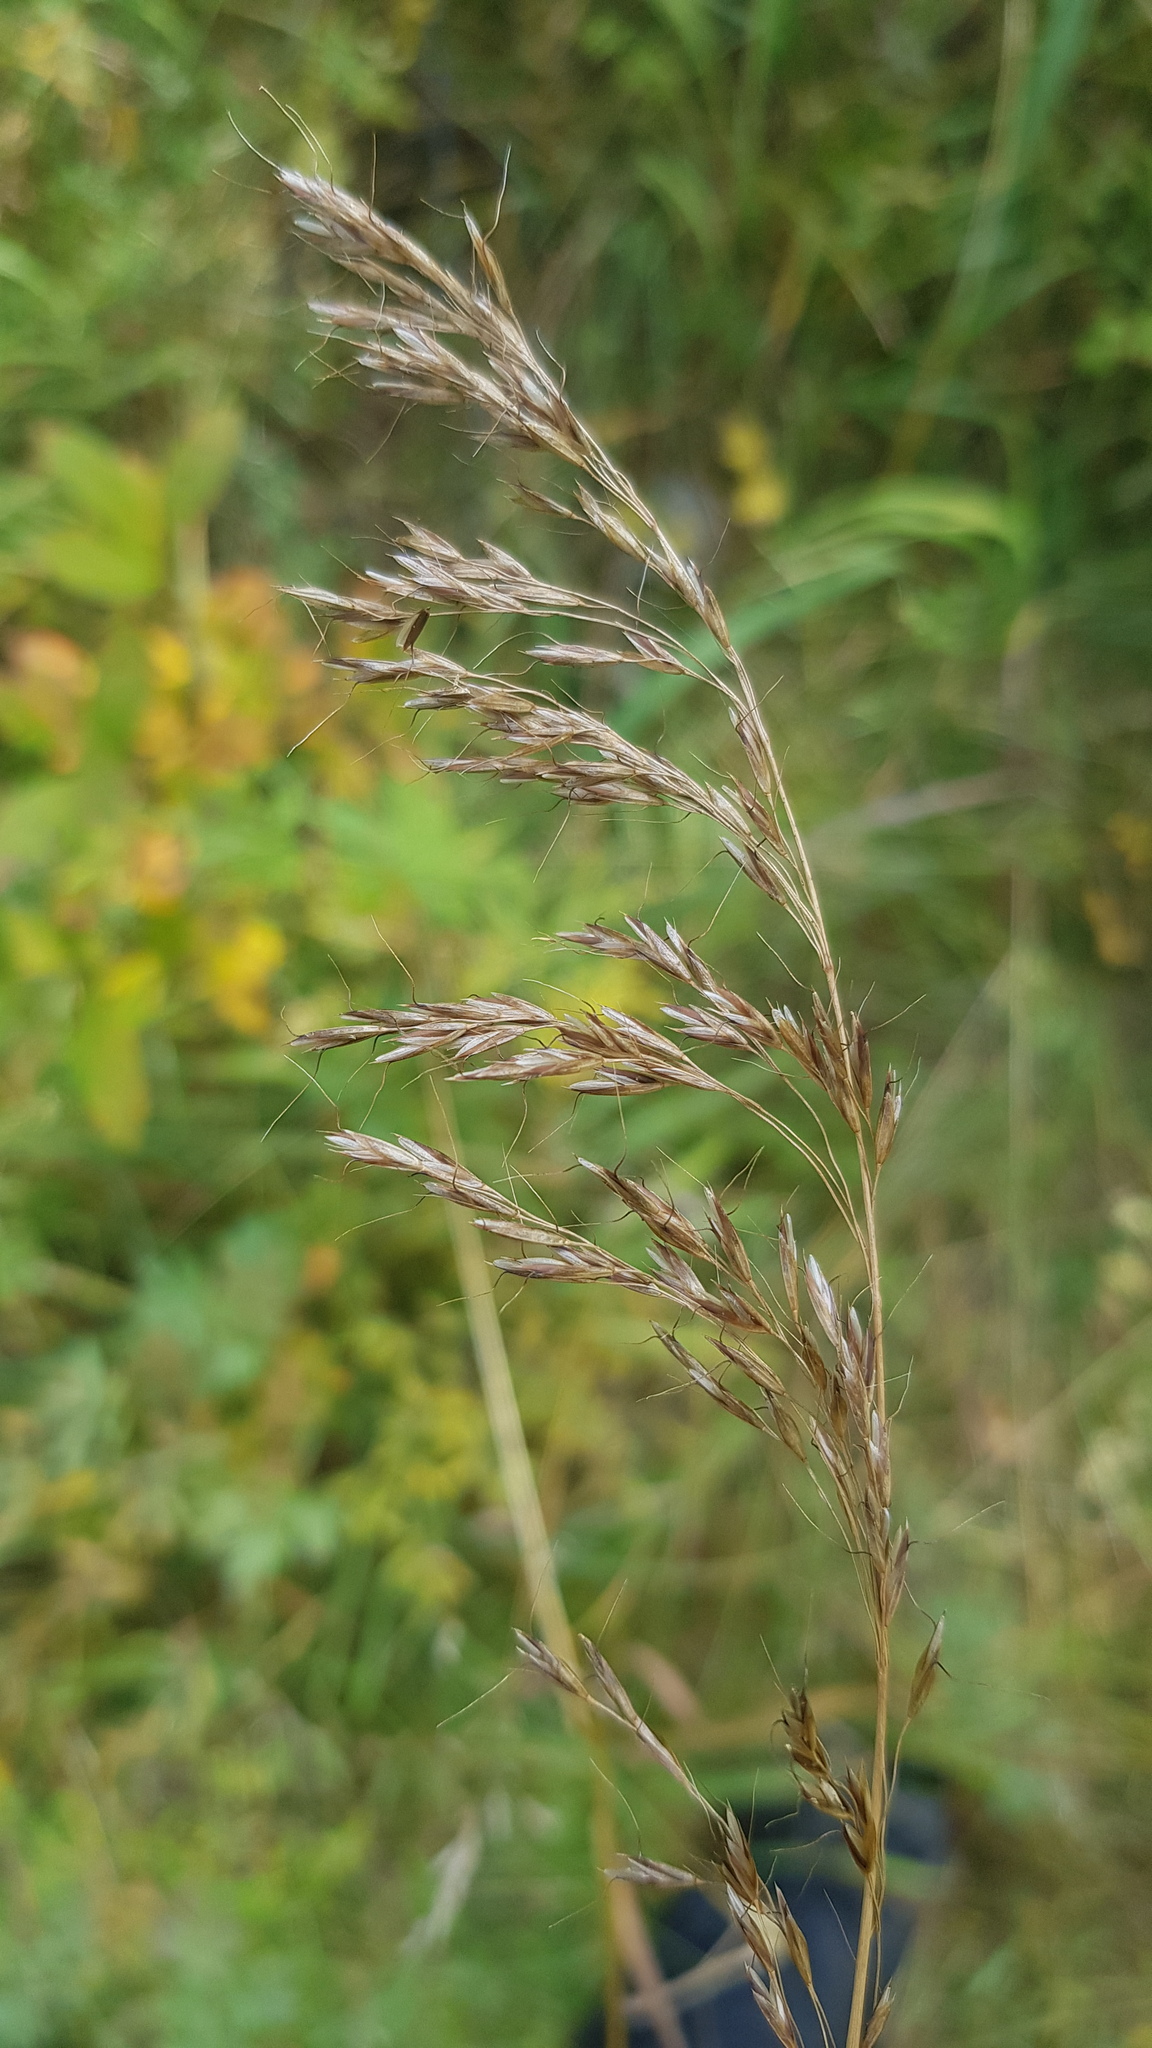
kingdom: Plantae
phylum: Tracheophyta
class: Liliopsida
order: Poales
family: Poaceae
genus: Achnatherum
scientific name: Achnatherum sibiricum
